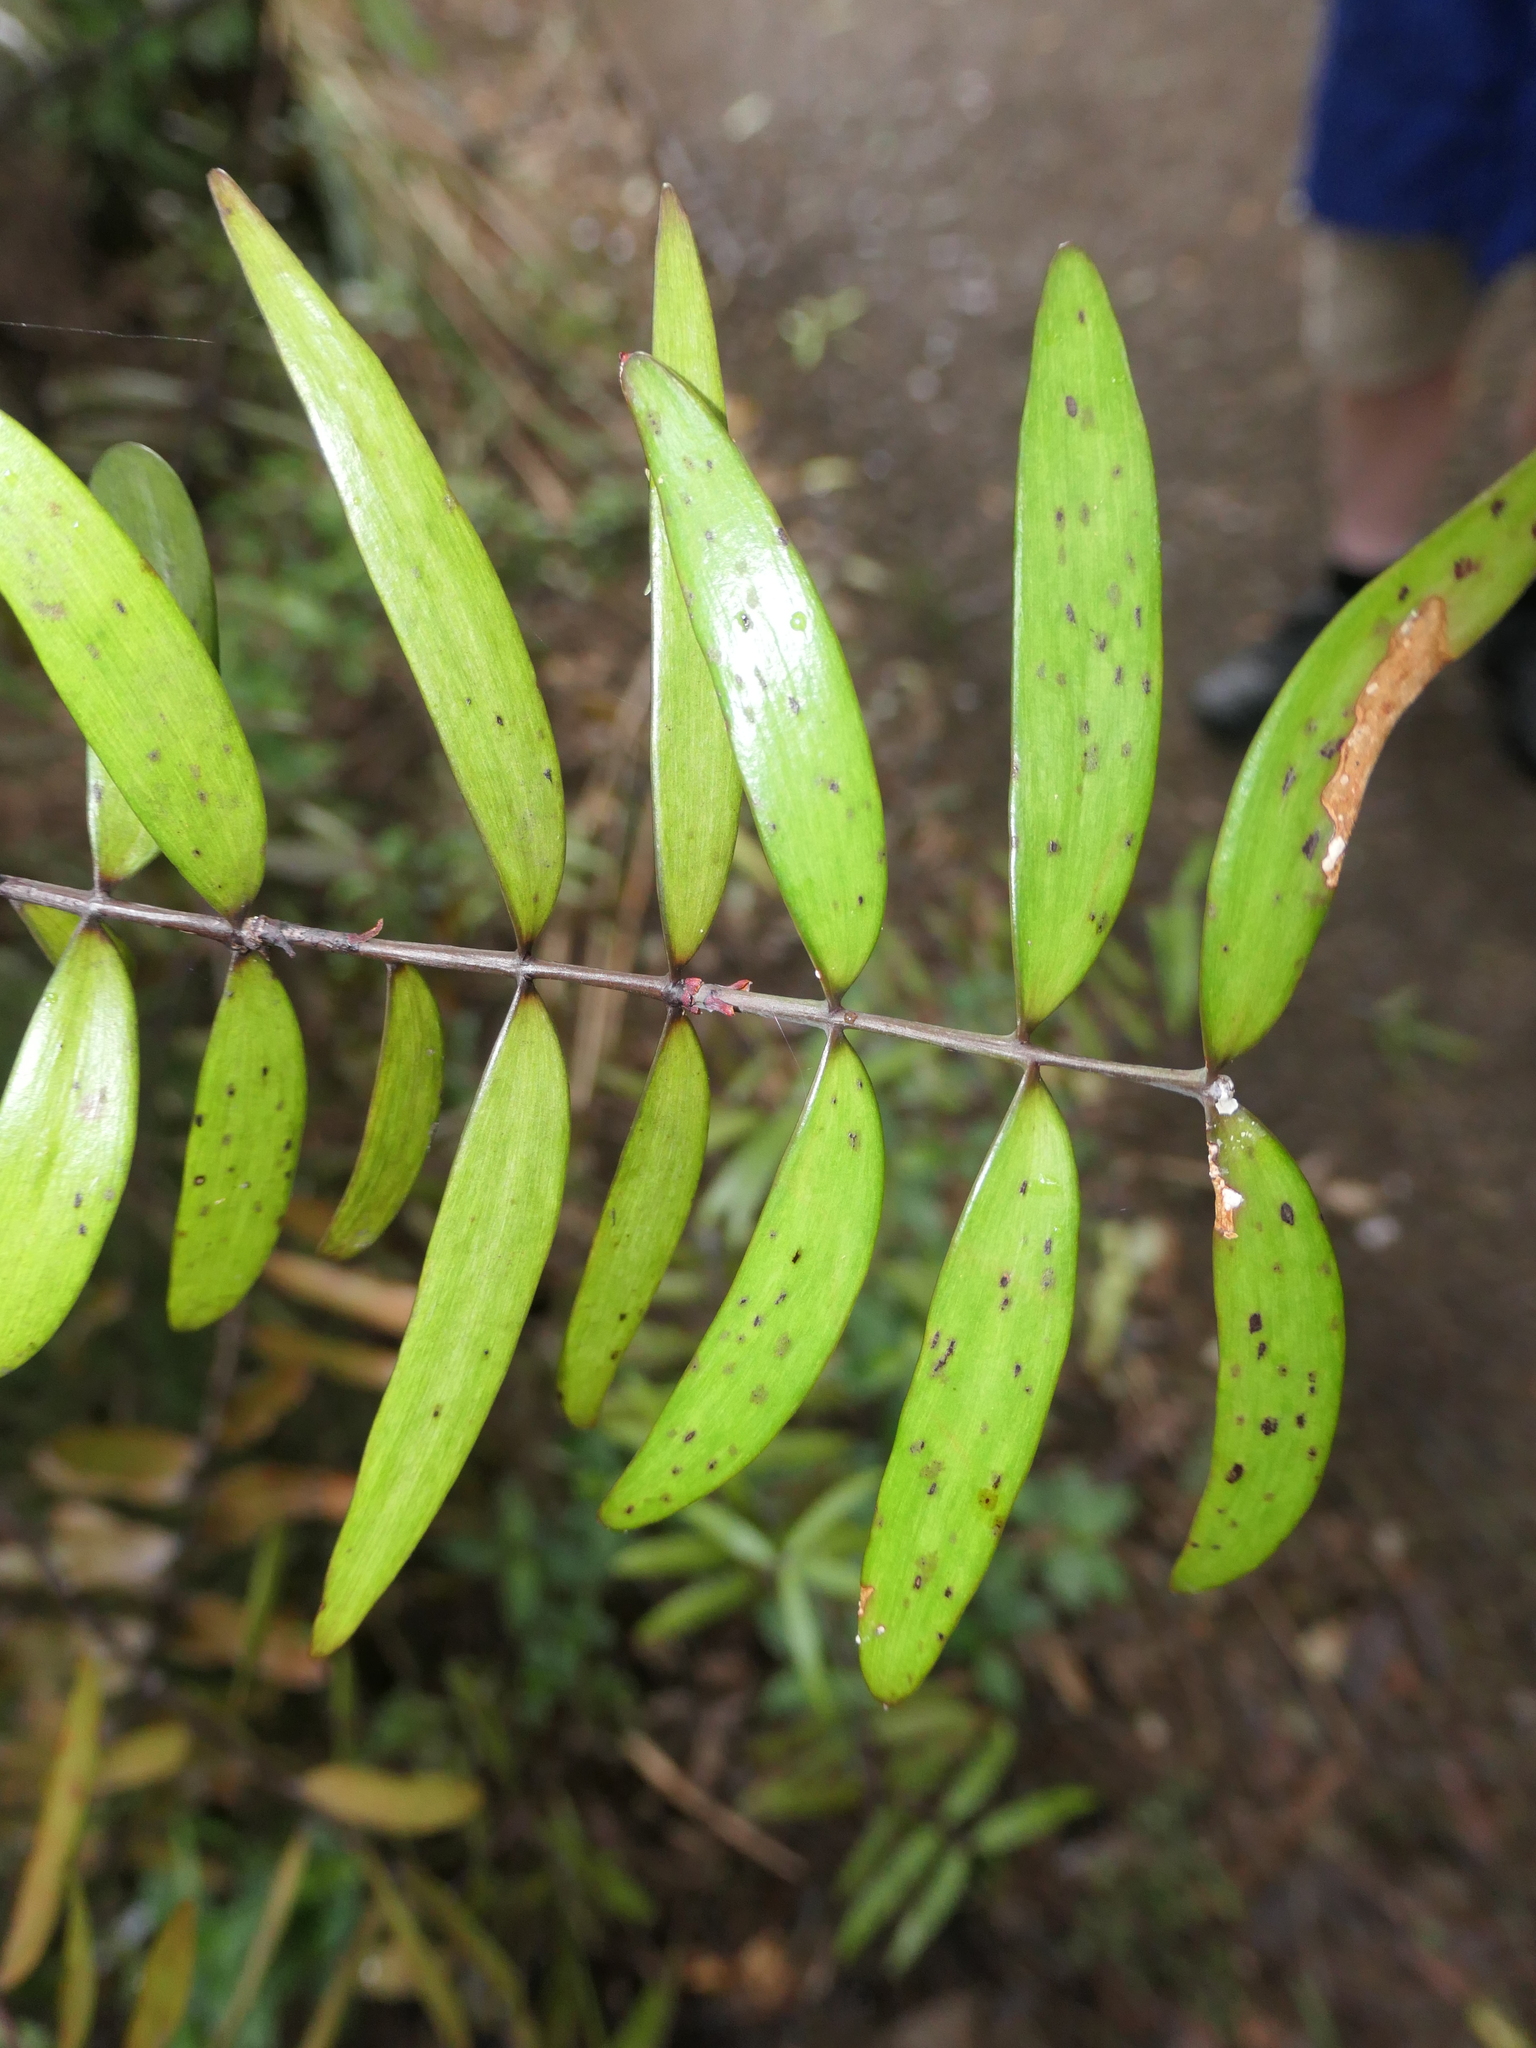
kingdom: Plantae
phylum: Tracheophyta
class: Pinopsida
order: Pinales
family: Araucariaceae
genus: Agathis
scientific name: Agathis australis
